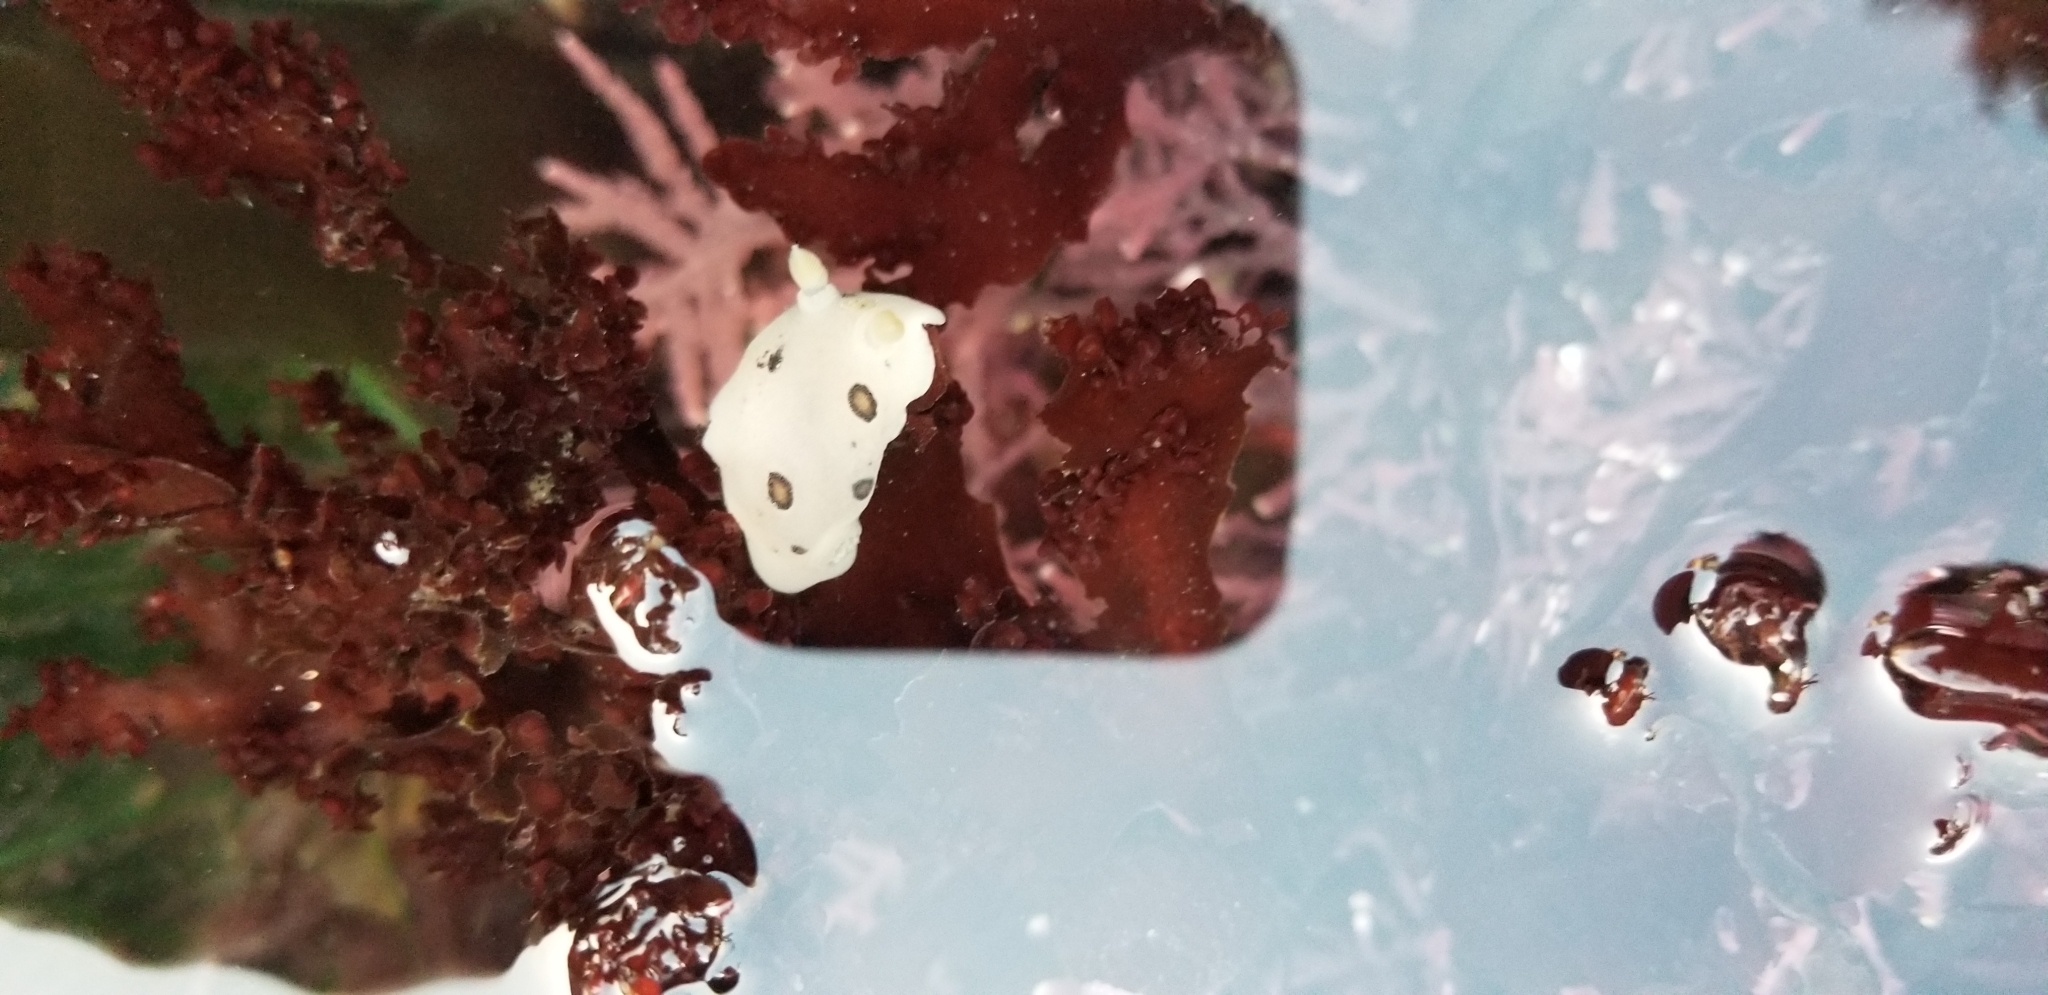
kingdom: Animalia
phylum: Mollusca
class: Gastropoda
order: Nudibranchia
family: Discodorididae
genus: Diaulula
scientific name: Diaulula sandiegensis
